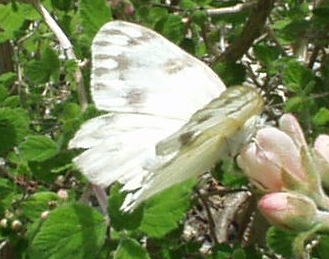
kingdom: Animalia
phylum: Arthropoda
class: Insecta
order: Lepidoptera
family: Pieridae
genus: Pontia
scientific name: Pontia protodice
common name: Checkered white
